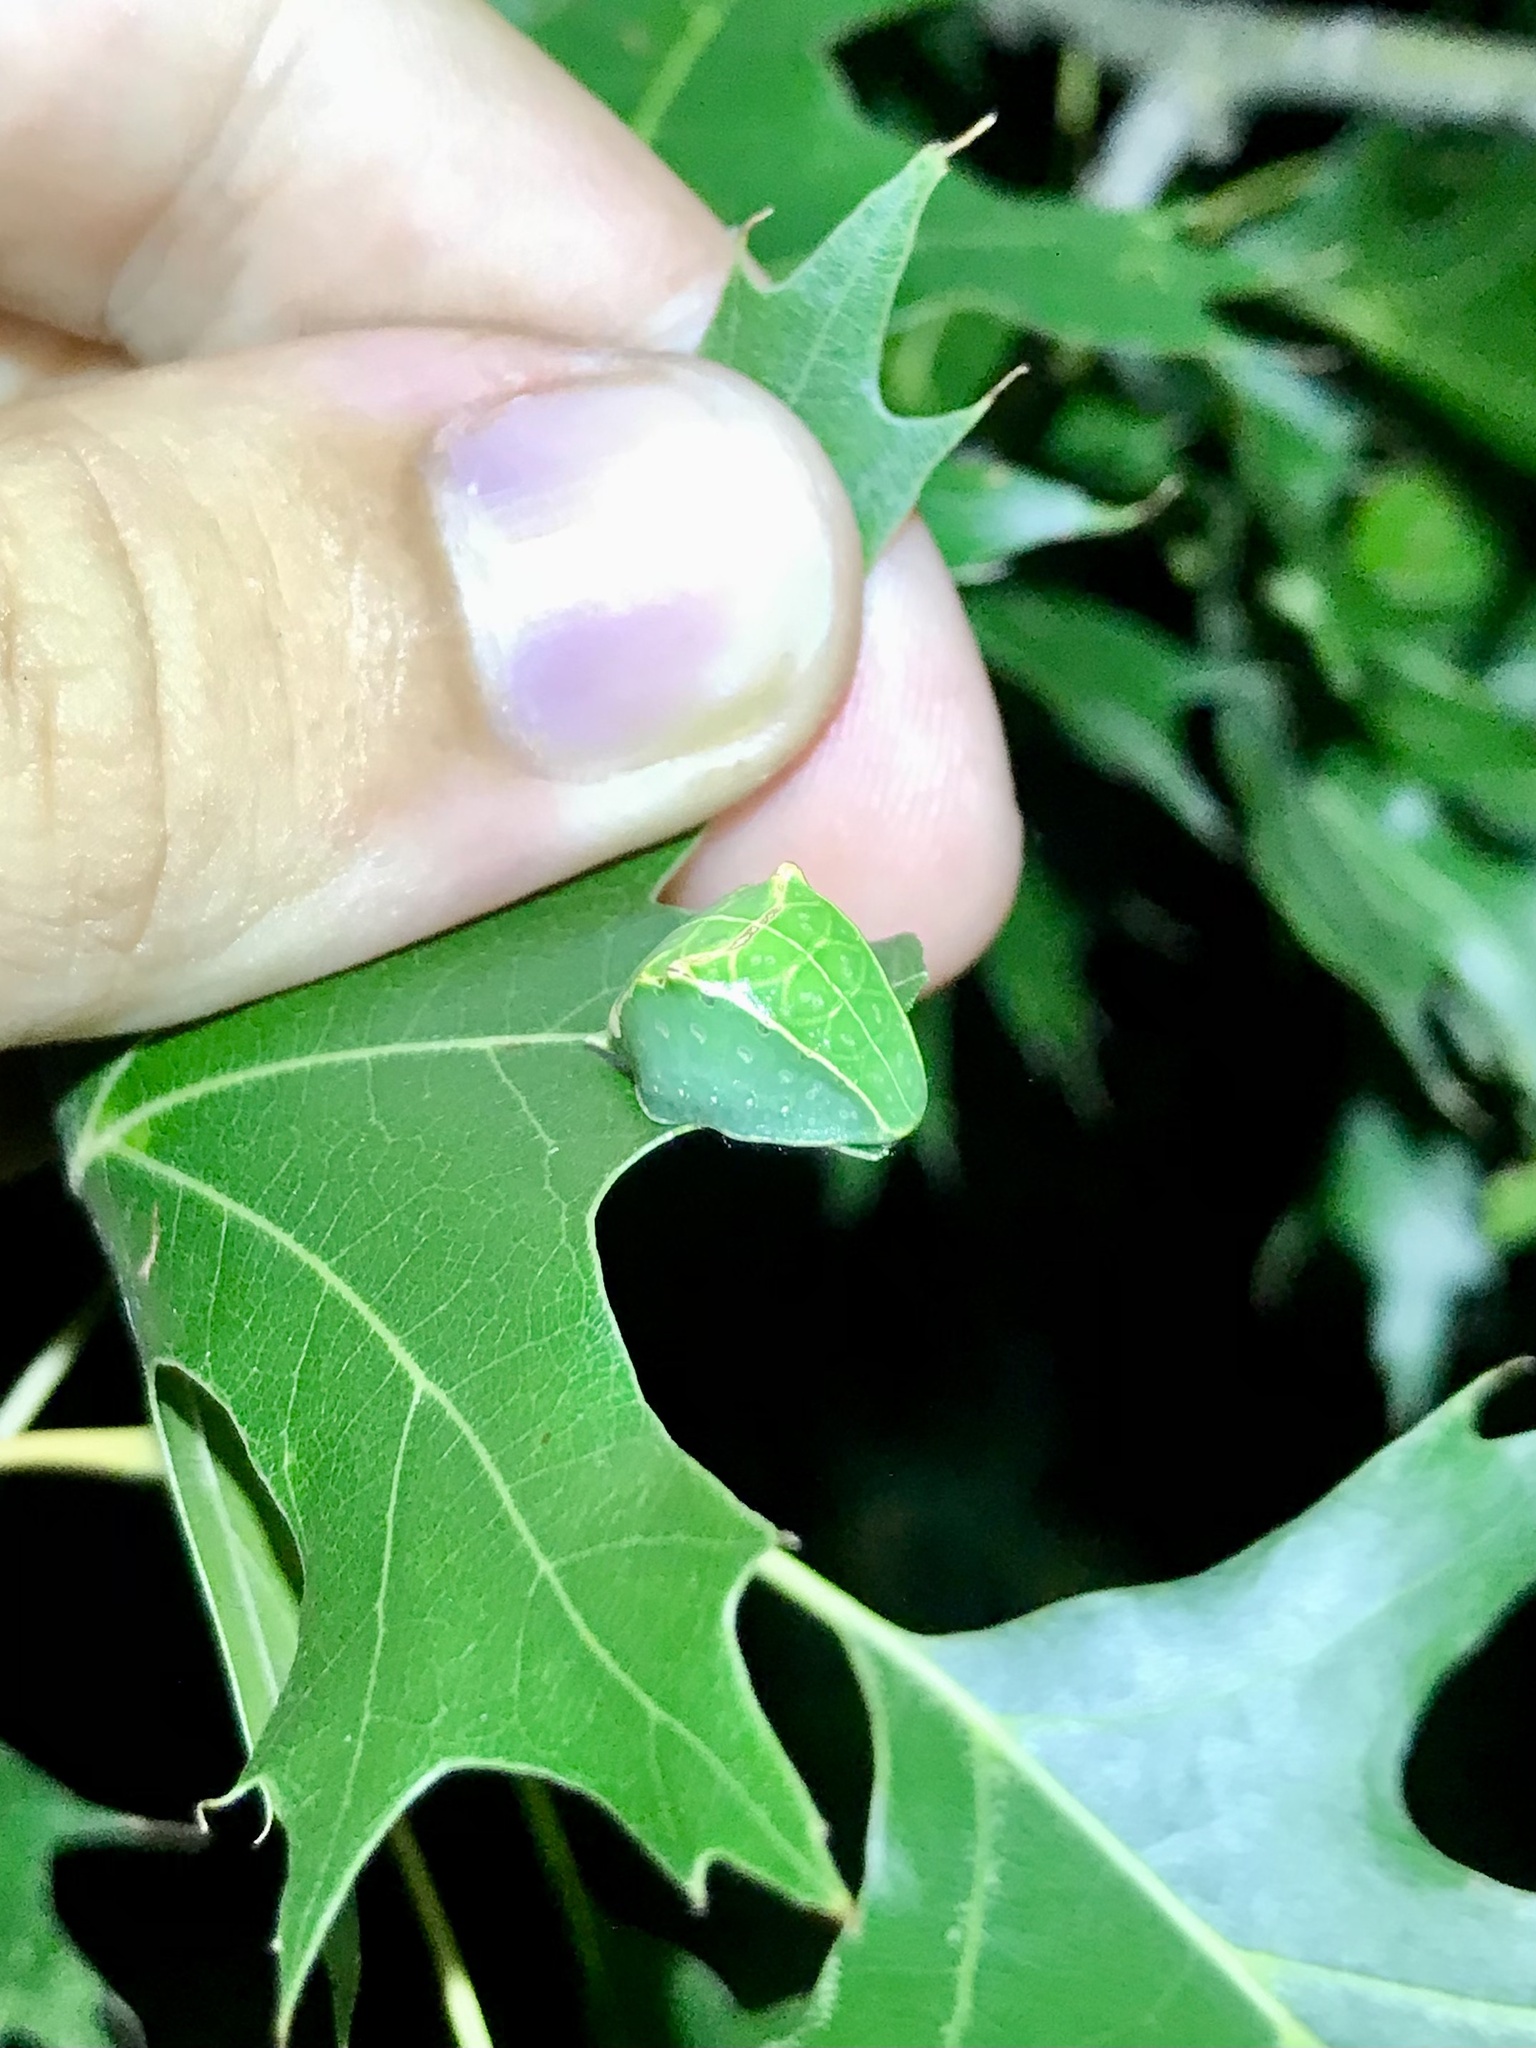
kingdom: Animalia
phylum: Arthropoda
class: Insecta
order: Lepidoptera
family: Limacodidae
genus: Prolimacodes
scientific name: Prolimacodes badia
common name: Skiff moth
